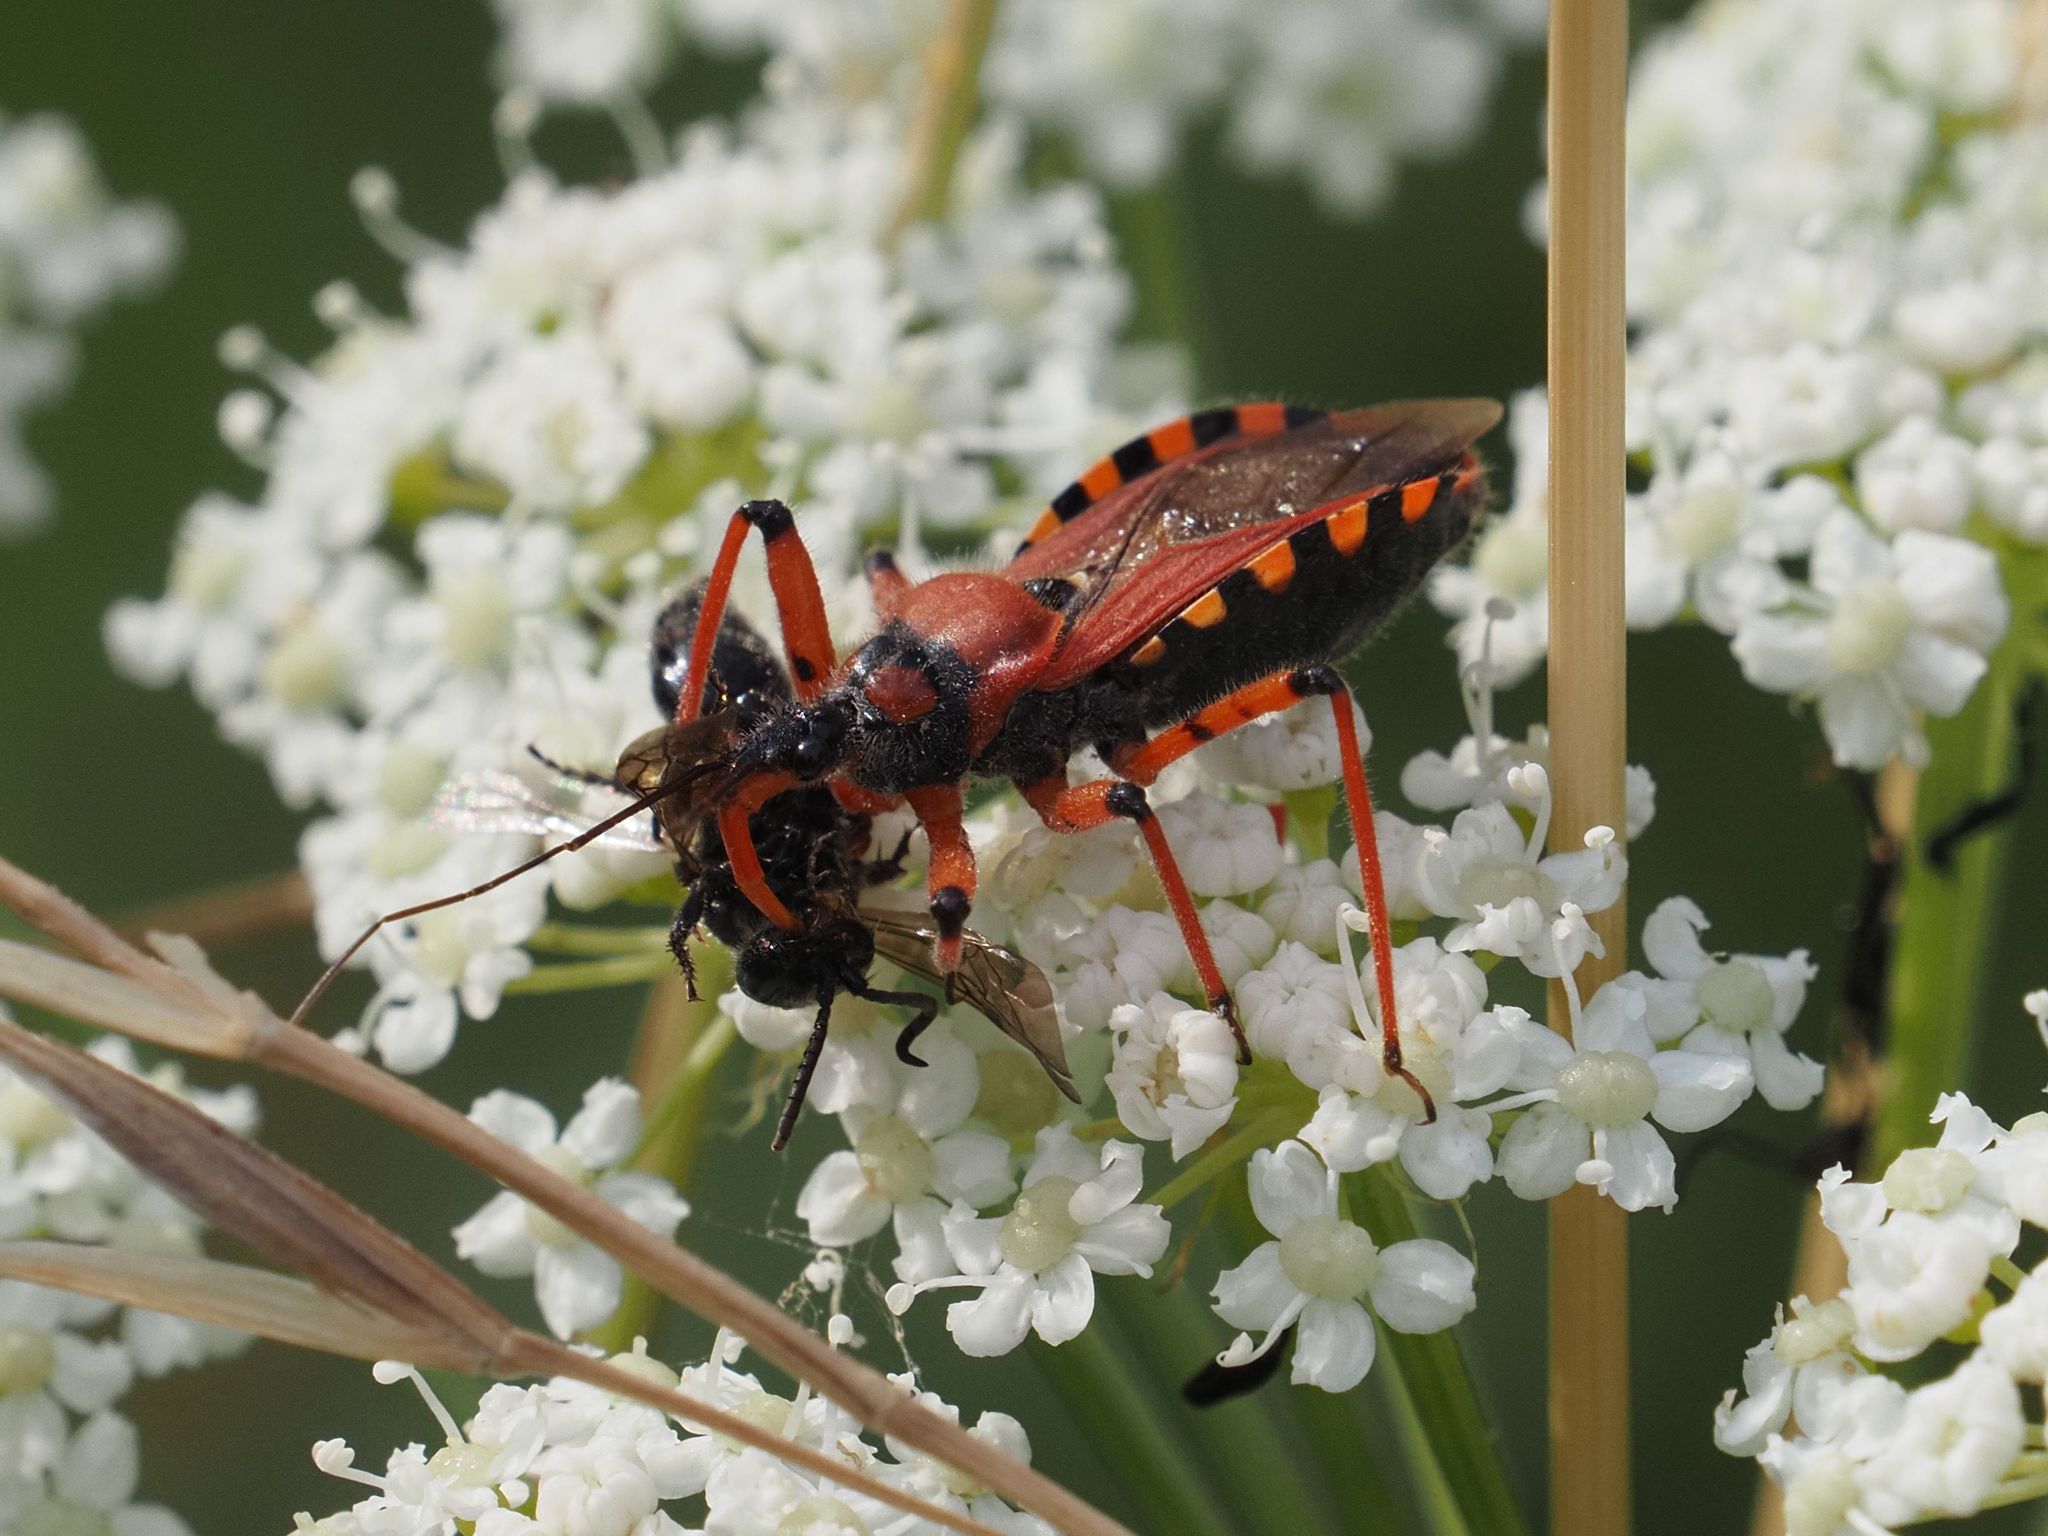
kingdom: Animalia
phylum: Arthropoda
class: Insecta
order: Hemiptera
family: Reduviidae
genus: Rhynocoris
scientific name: Rhynocoris iracundus
